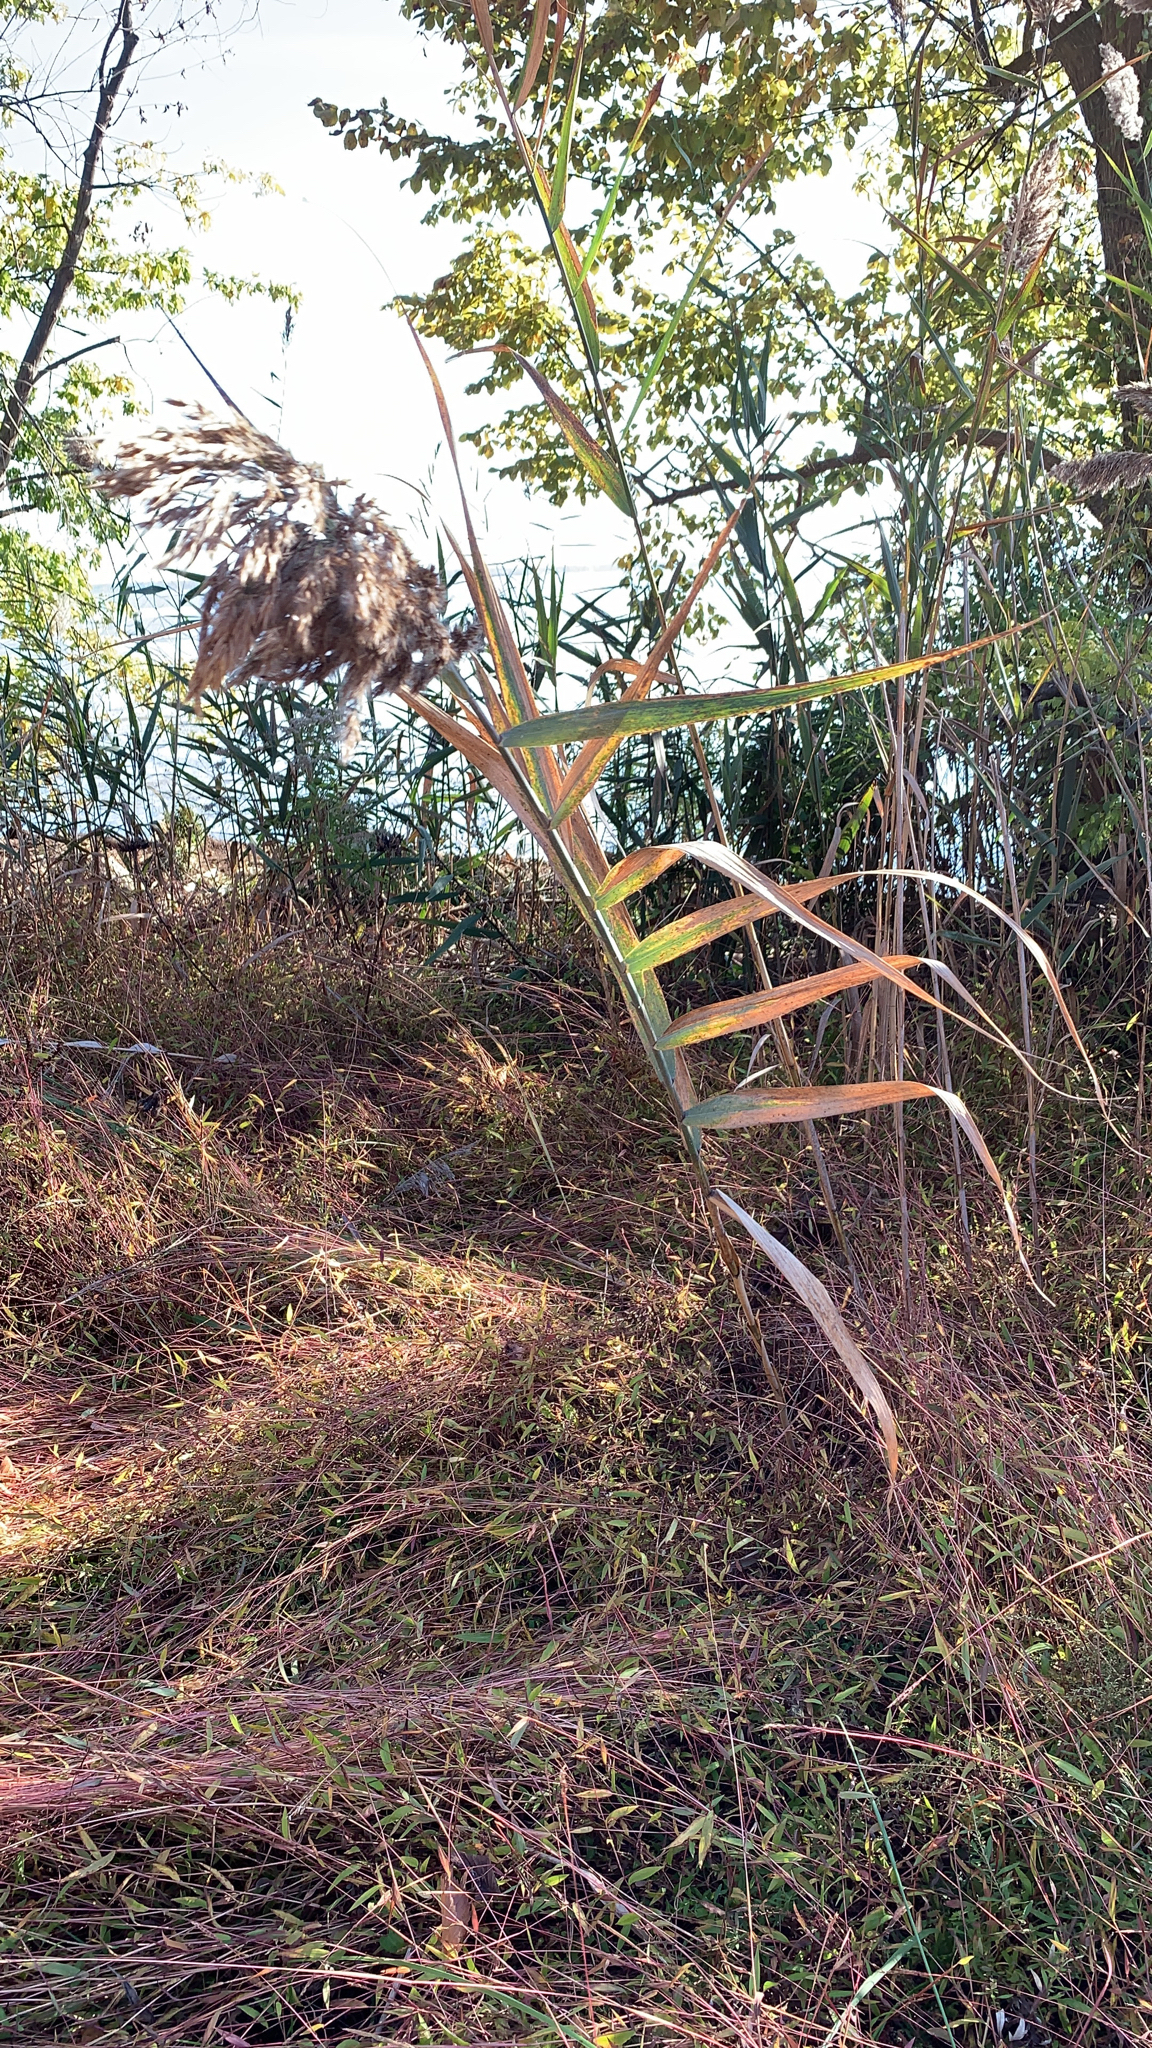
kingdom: Plantae
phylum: Tracheophyta
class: Liliopsida
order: Poales
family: Poaceae
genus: Phragmites
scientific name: Phragmites australis
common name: Common reed
